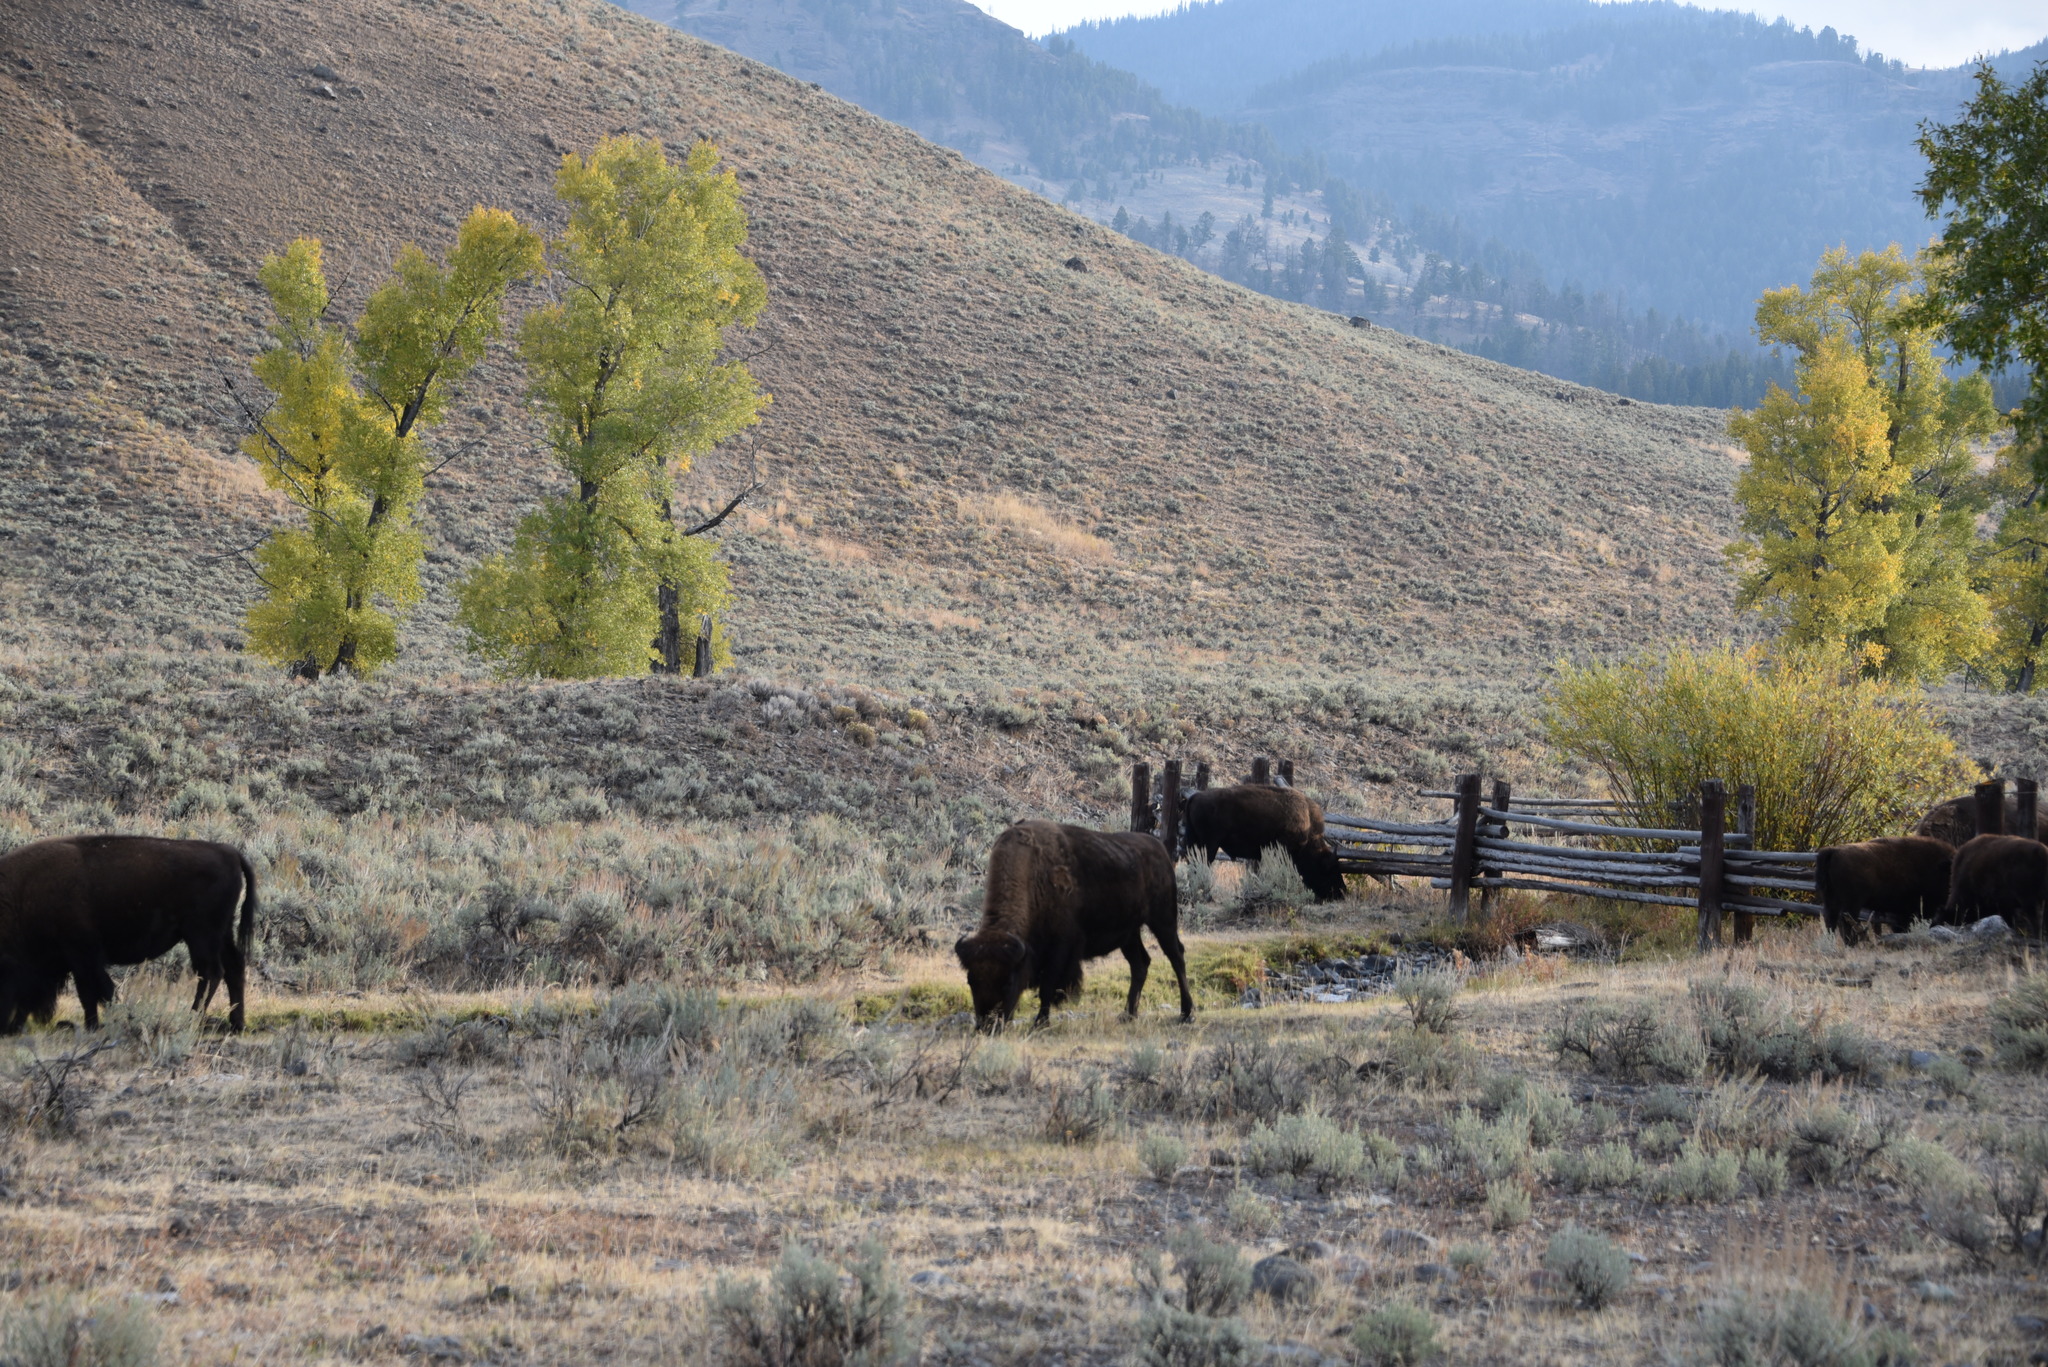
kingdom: Animalia
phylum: Chordata
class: Mammalia
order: Artiodactyla
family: Bovidae
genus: Bison
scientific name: Bison bison
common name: American bison
